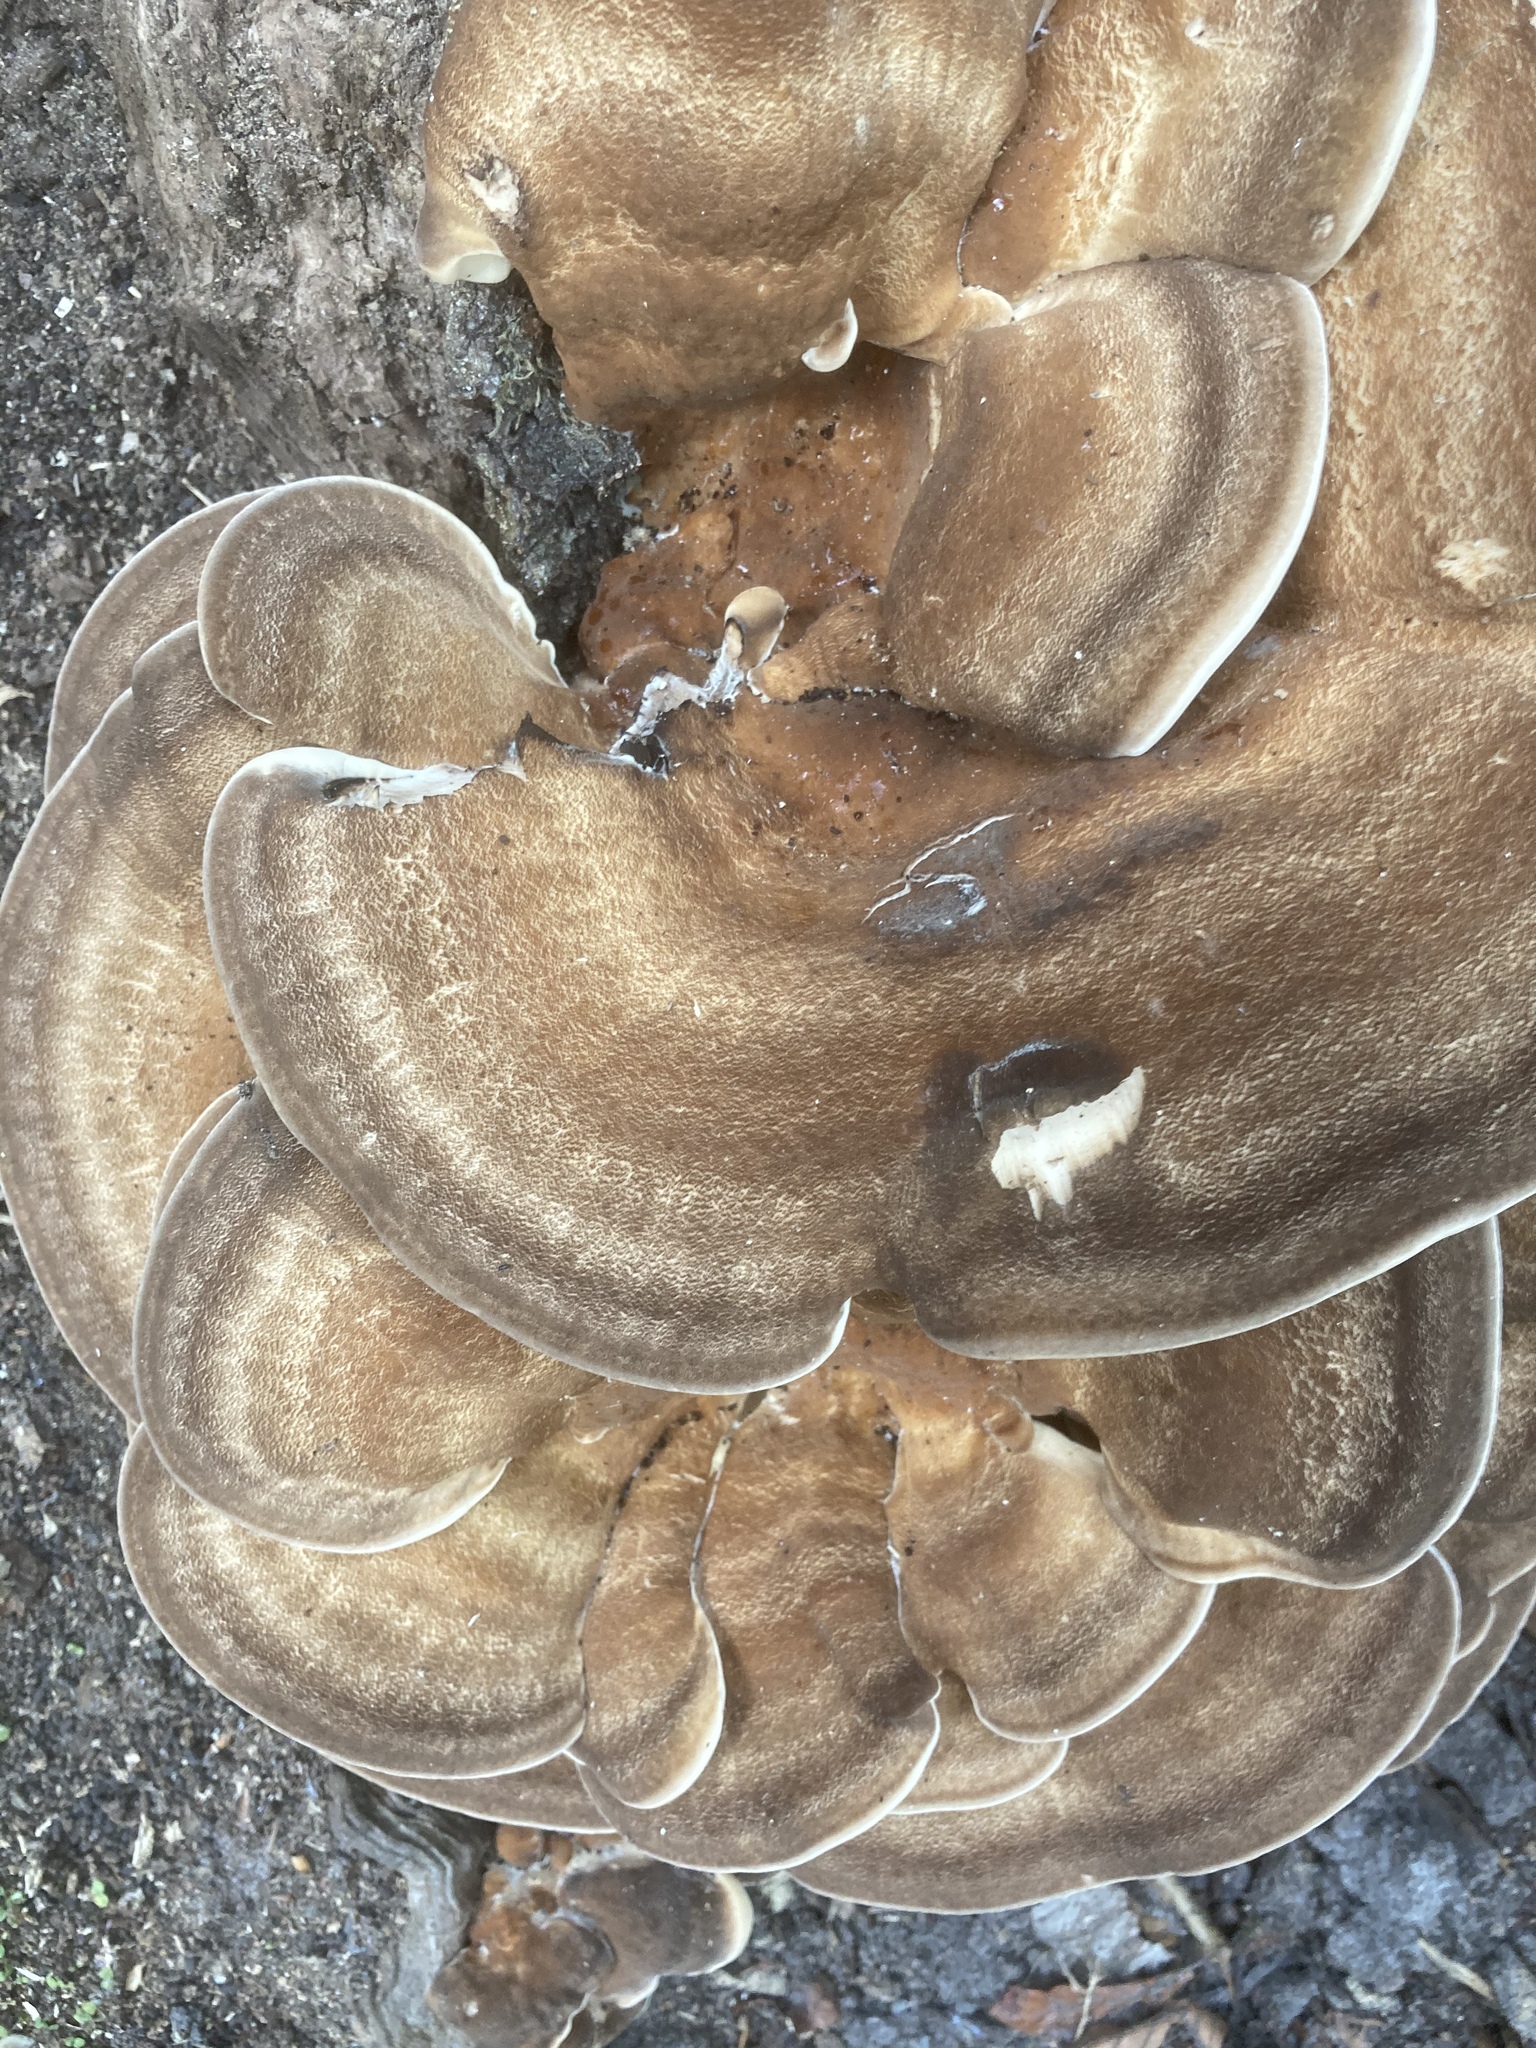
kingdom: Fungi
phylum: Basidiomycota
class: Agaricomycetes
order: Polyporales
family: Meripilaceae
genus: Meripilus
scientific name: Meripilus giganteus
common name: Giant polypore
